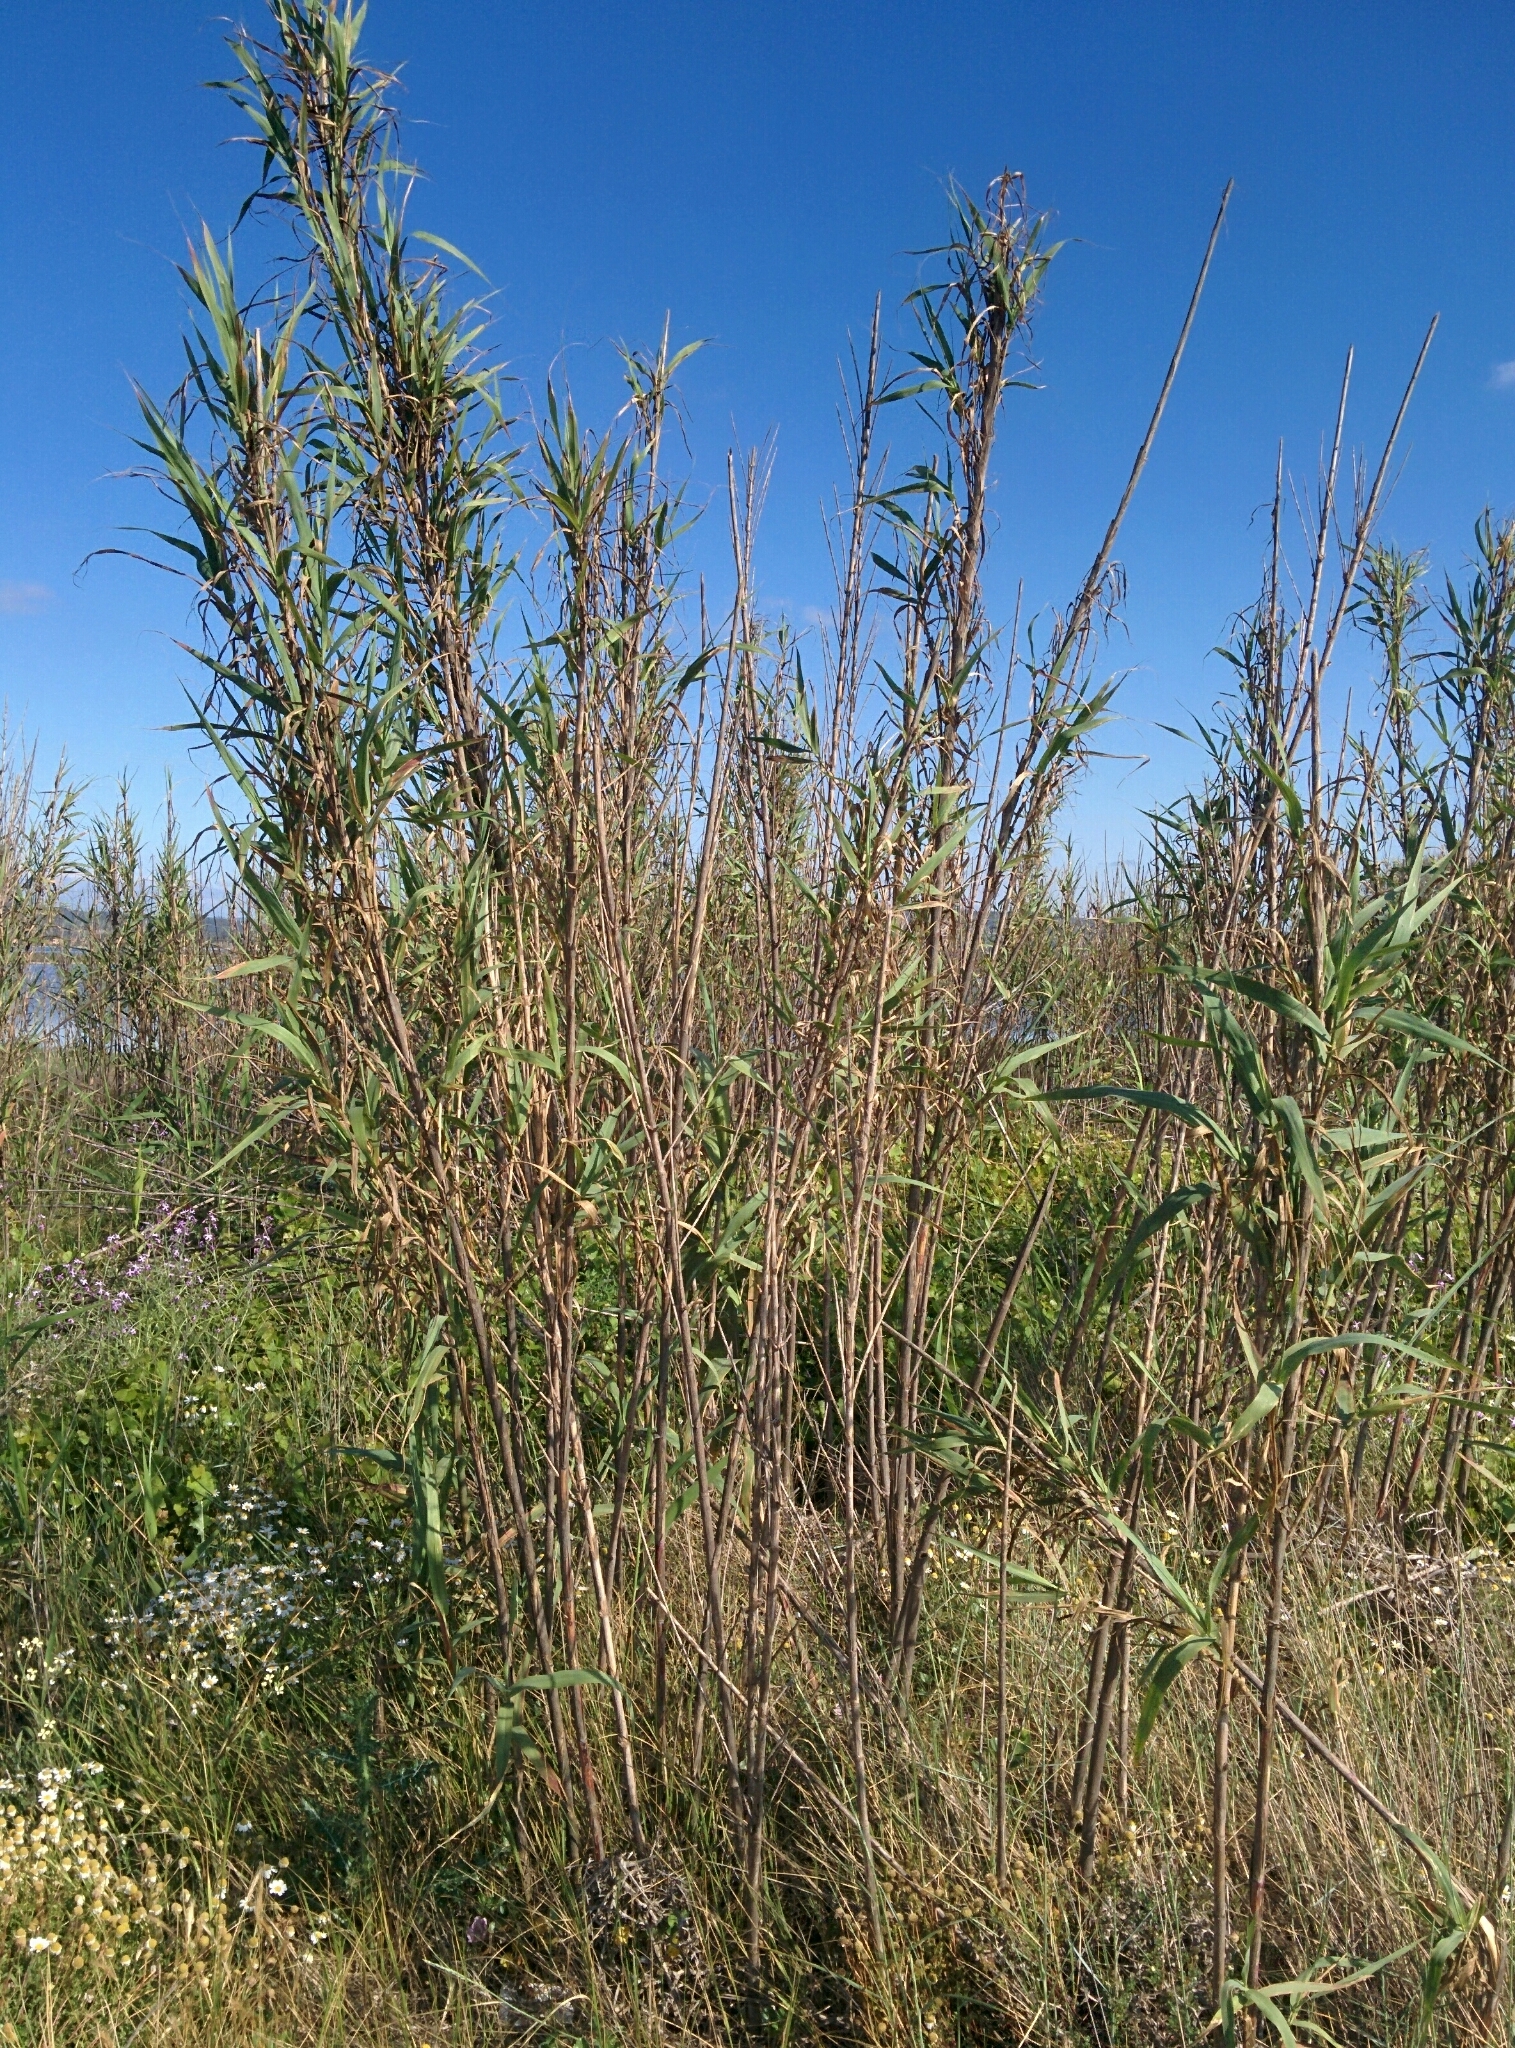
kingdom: Plantae
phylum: Tracheophyta
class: Liliopsida
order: Poales
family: Poaceae
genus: Arundo
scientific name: Arundo donax
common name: Giant reed
